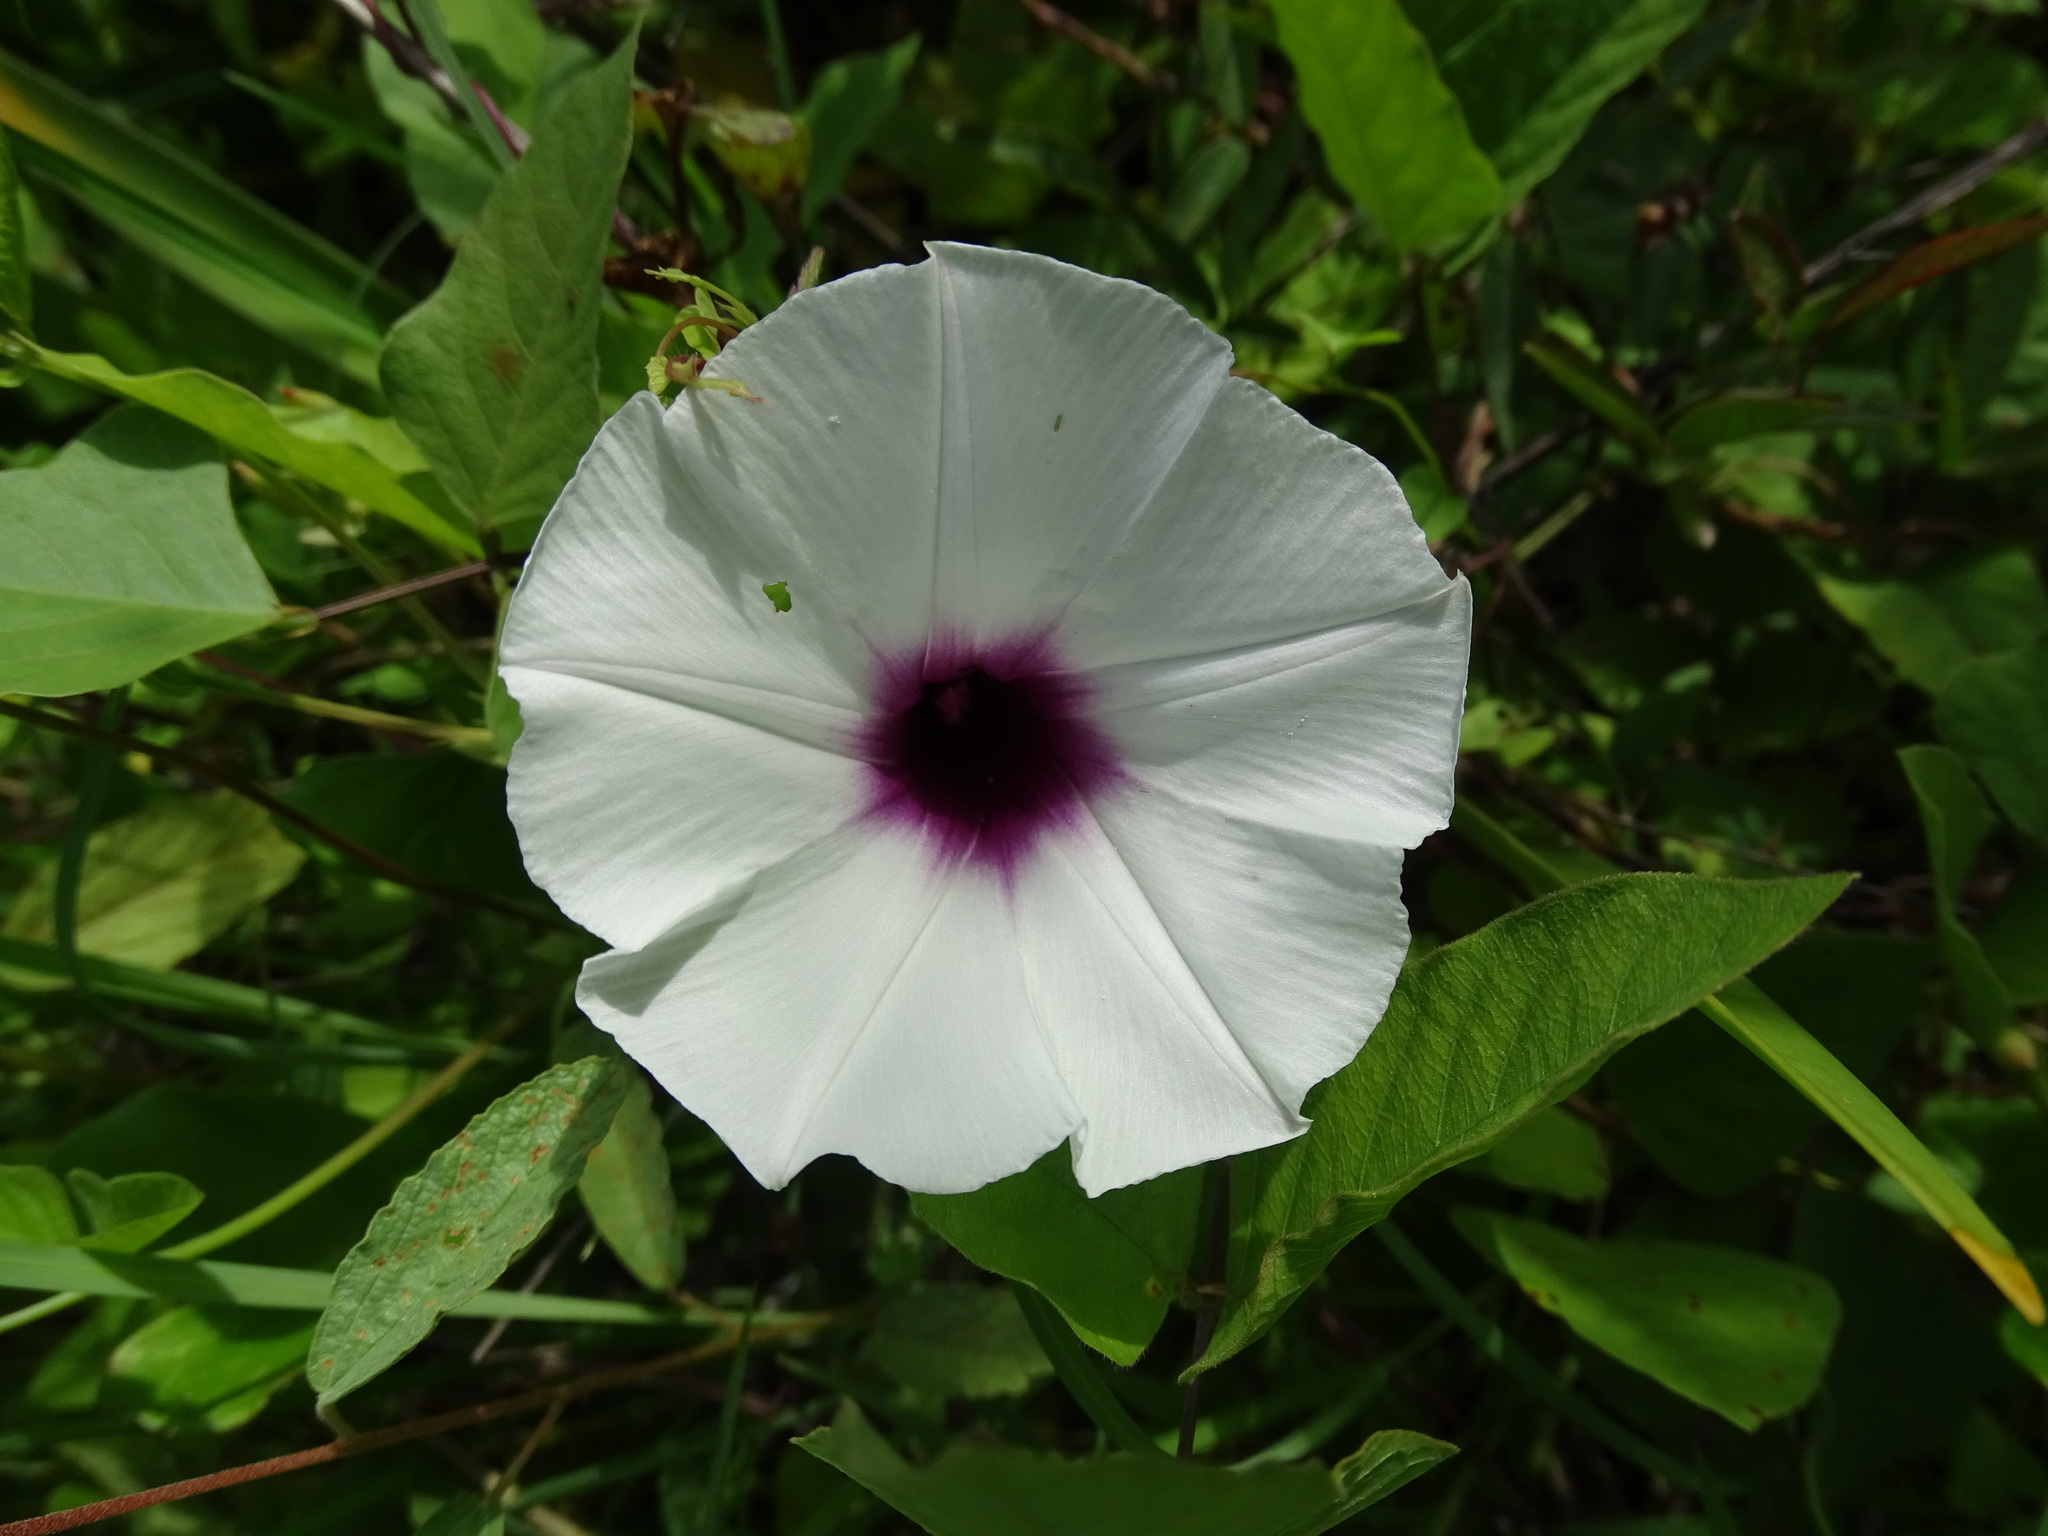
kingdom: Plantae
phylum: Tracheophyta
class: Magnoliopsida
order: Solanales
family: Convolvulaceae
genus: Ipomoea
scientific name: Ipomoea anisomeres
